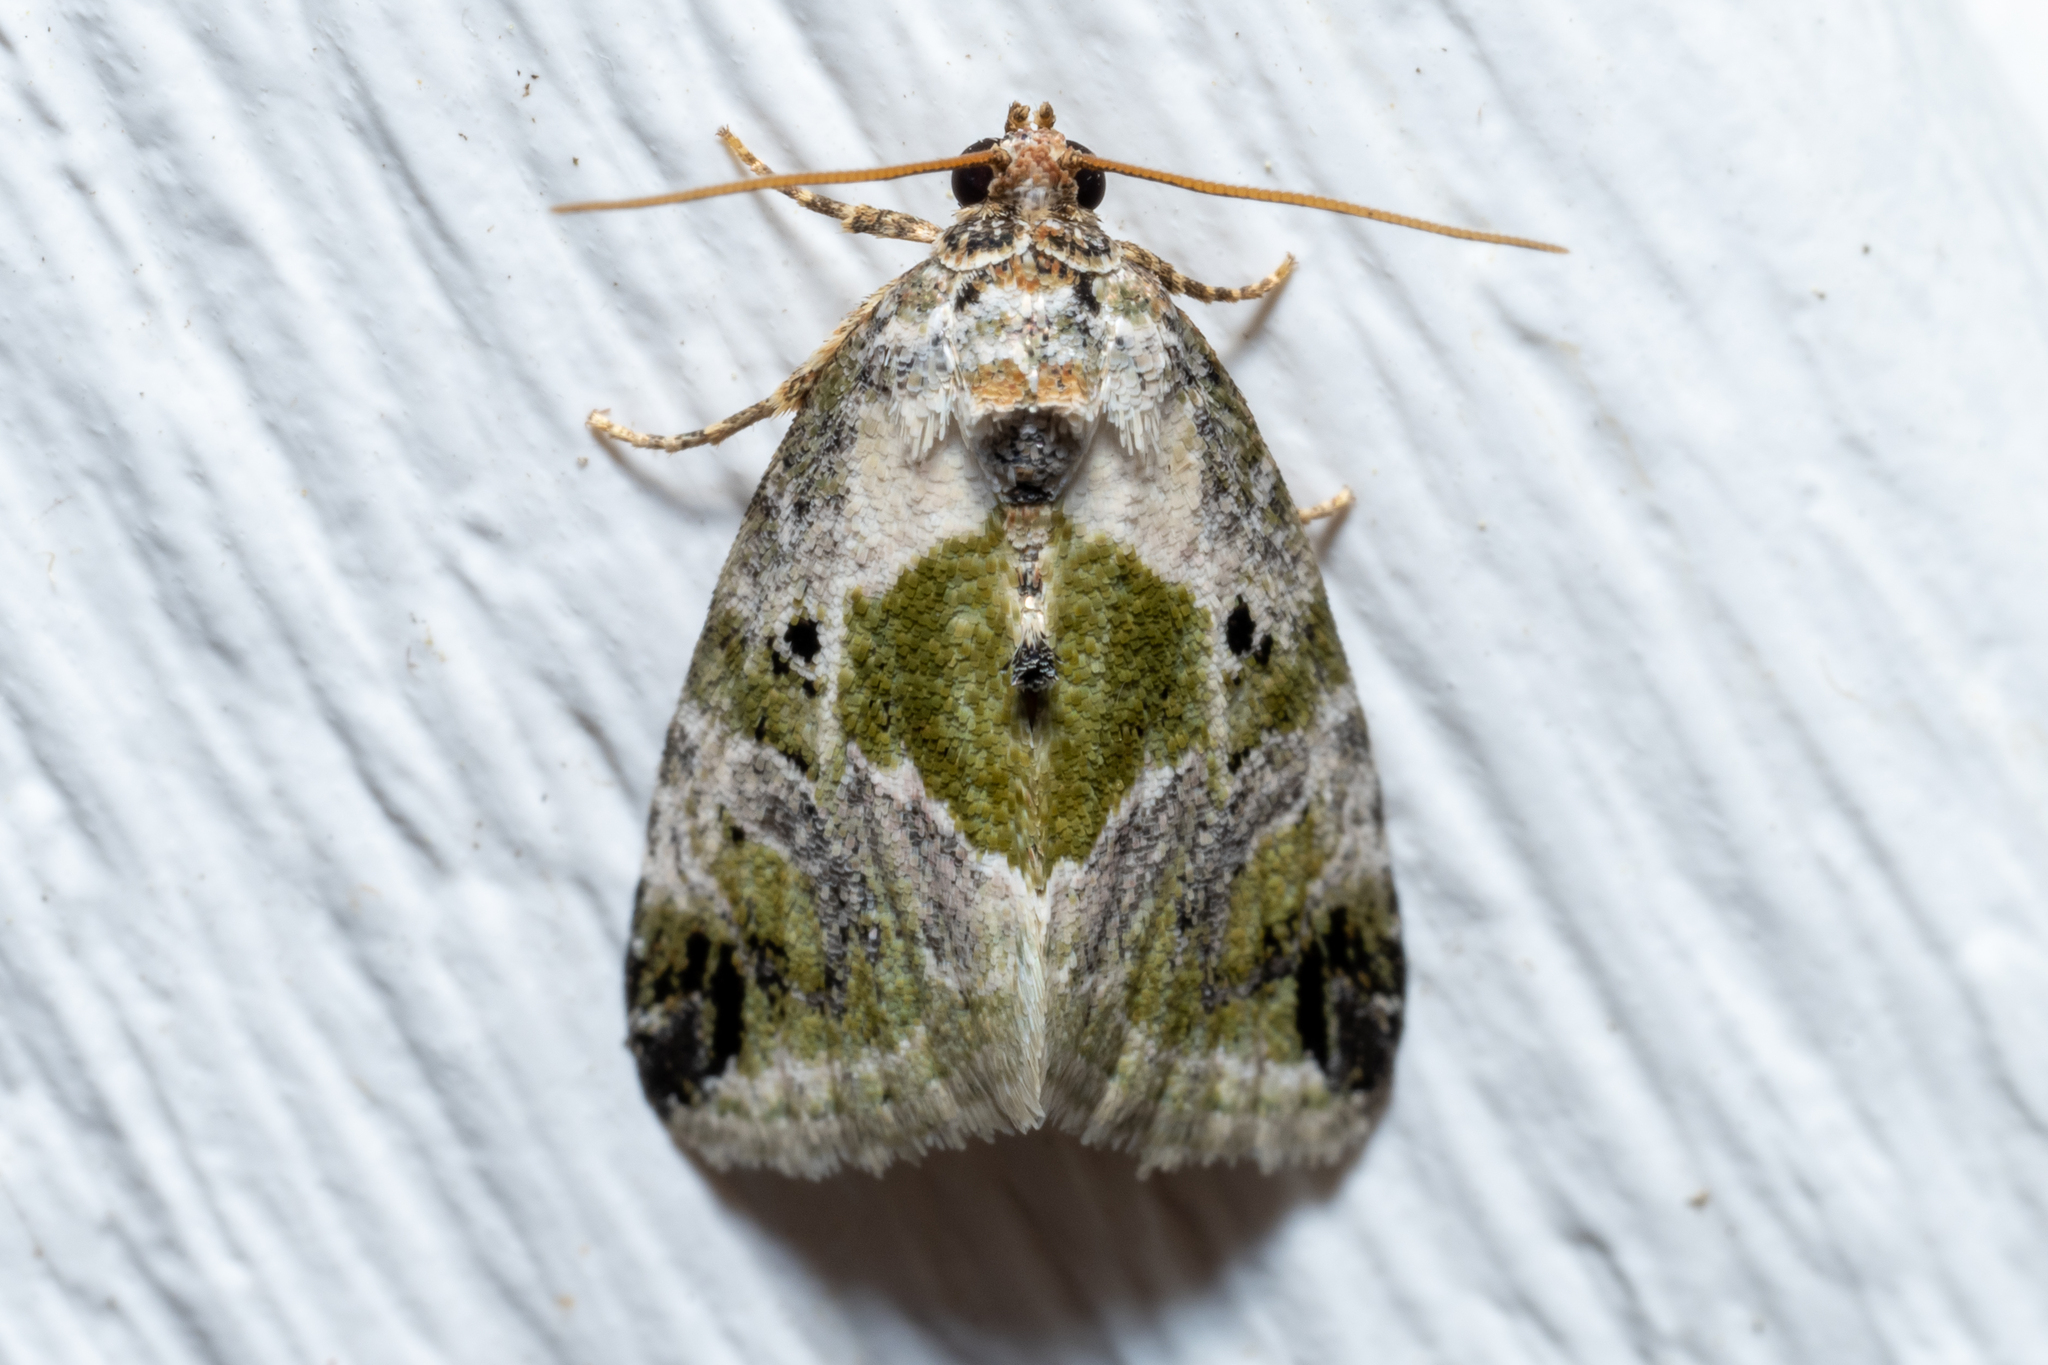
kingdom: Animalia
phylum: Arthropoda
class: Insecta
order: Lepidoptera
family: Noctuidae
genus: Maliattha
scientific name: Maliattha synochitis
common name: Black-dotted glyph
